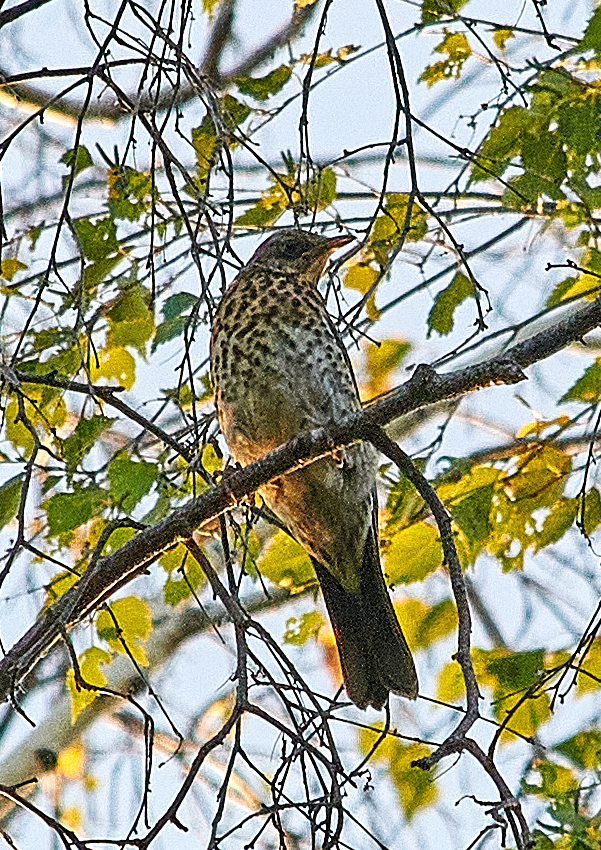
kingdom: Animalia
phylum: Chordata
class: Aves
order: Passeriformes
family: Turdidae
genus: Turdus
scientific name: Turdus pilaris
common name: Fieldfare
